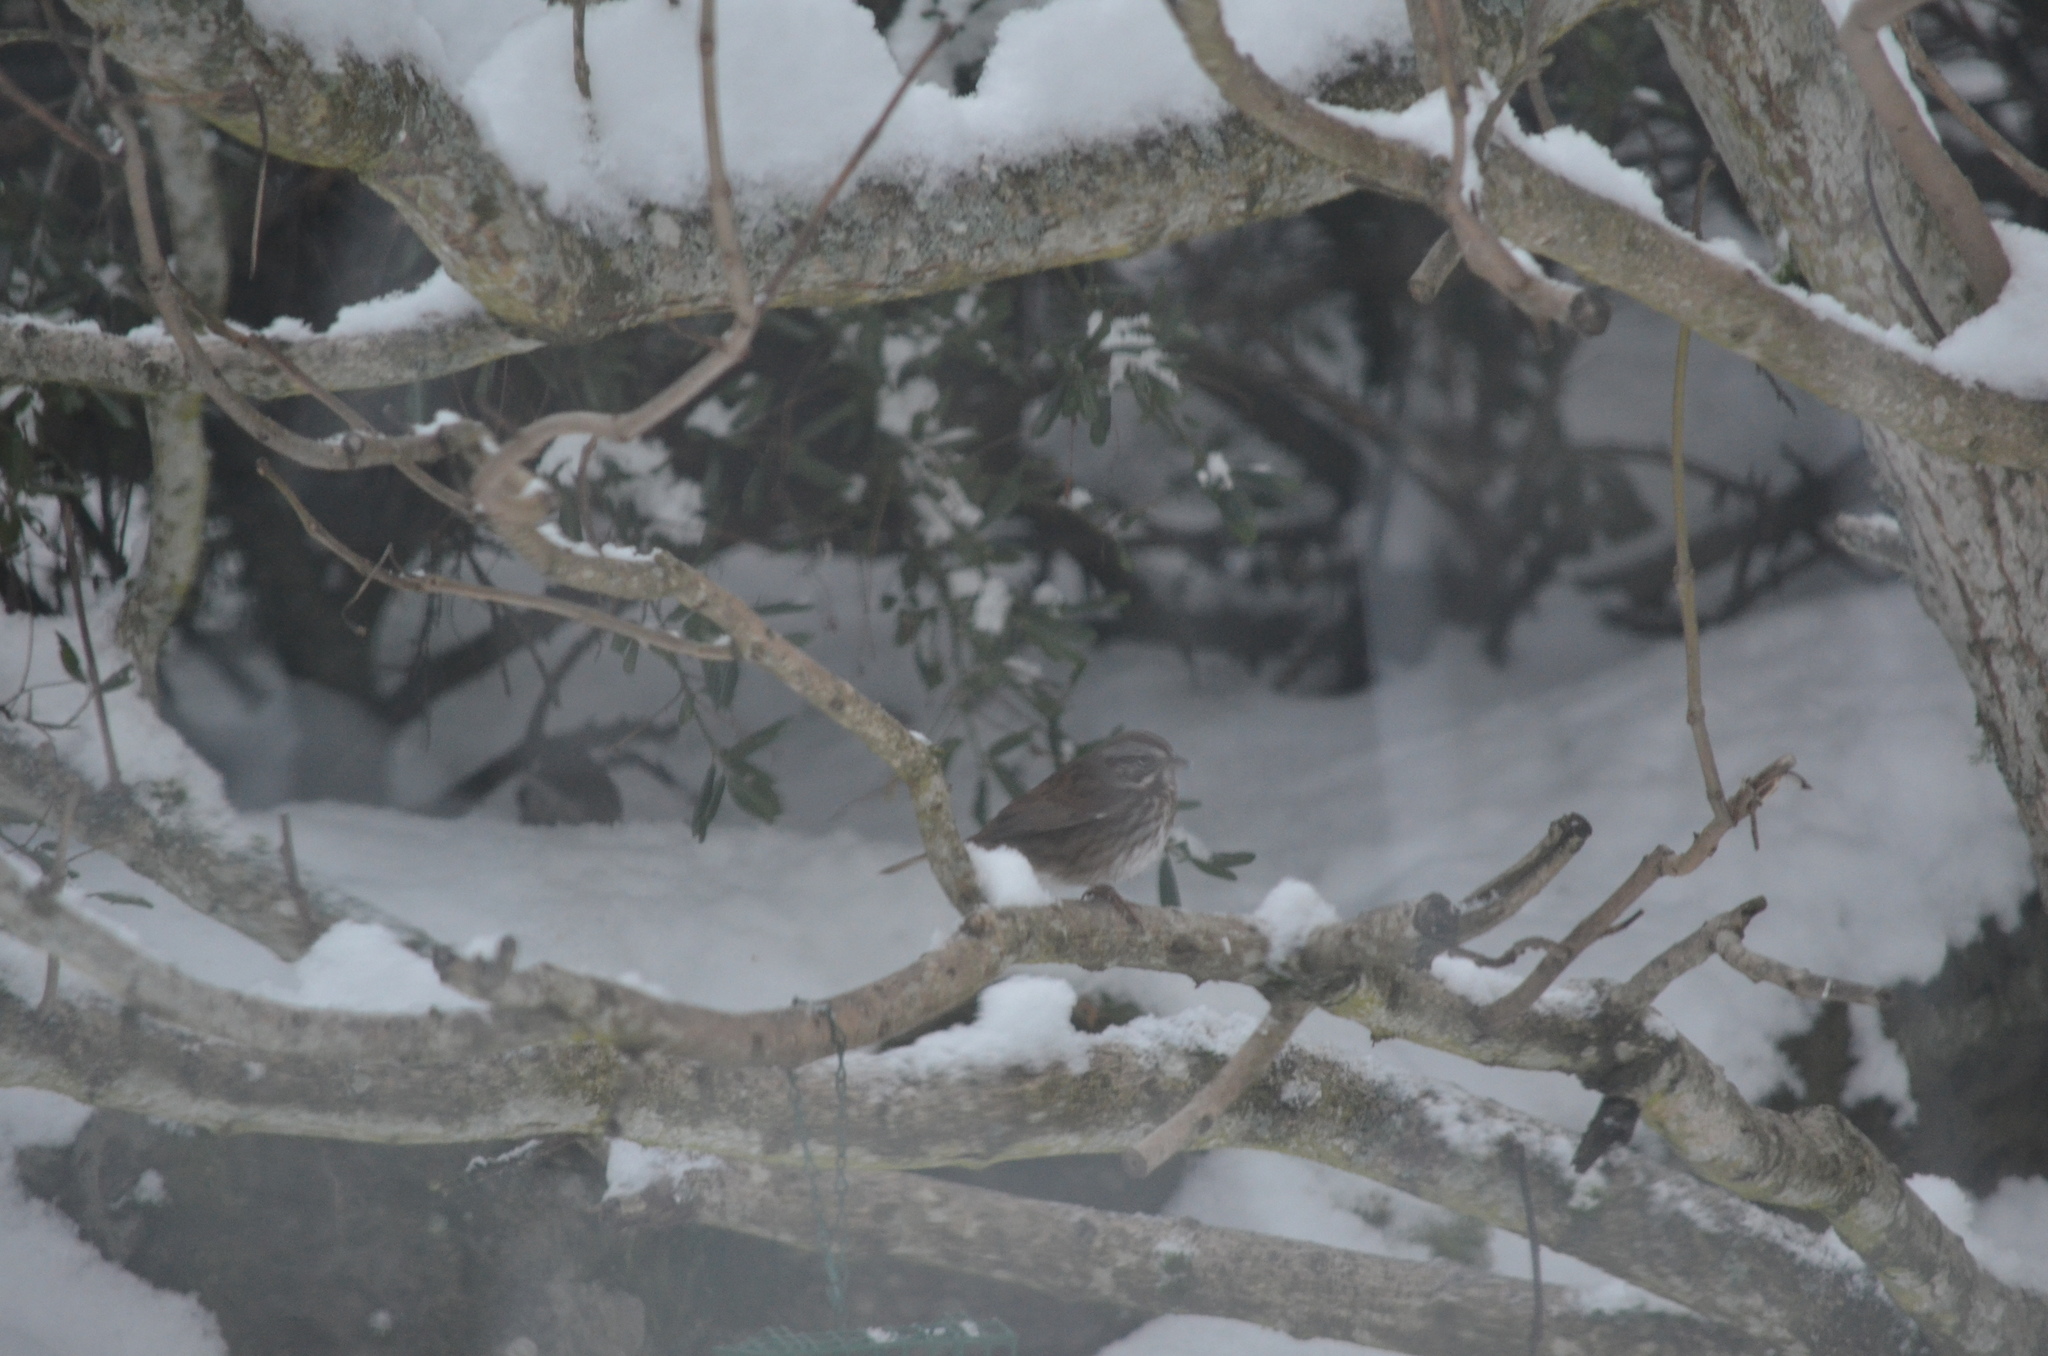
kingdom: Animalia
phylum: Chordata
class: Aves
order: Passeriformes
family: Passerellidae
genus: Melospiza
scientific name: Melospiza melodia
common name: Song sparrow
